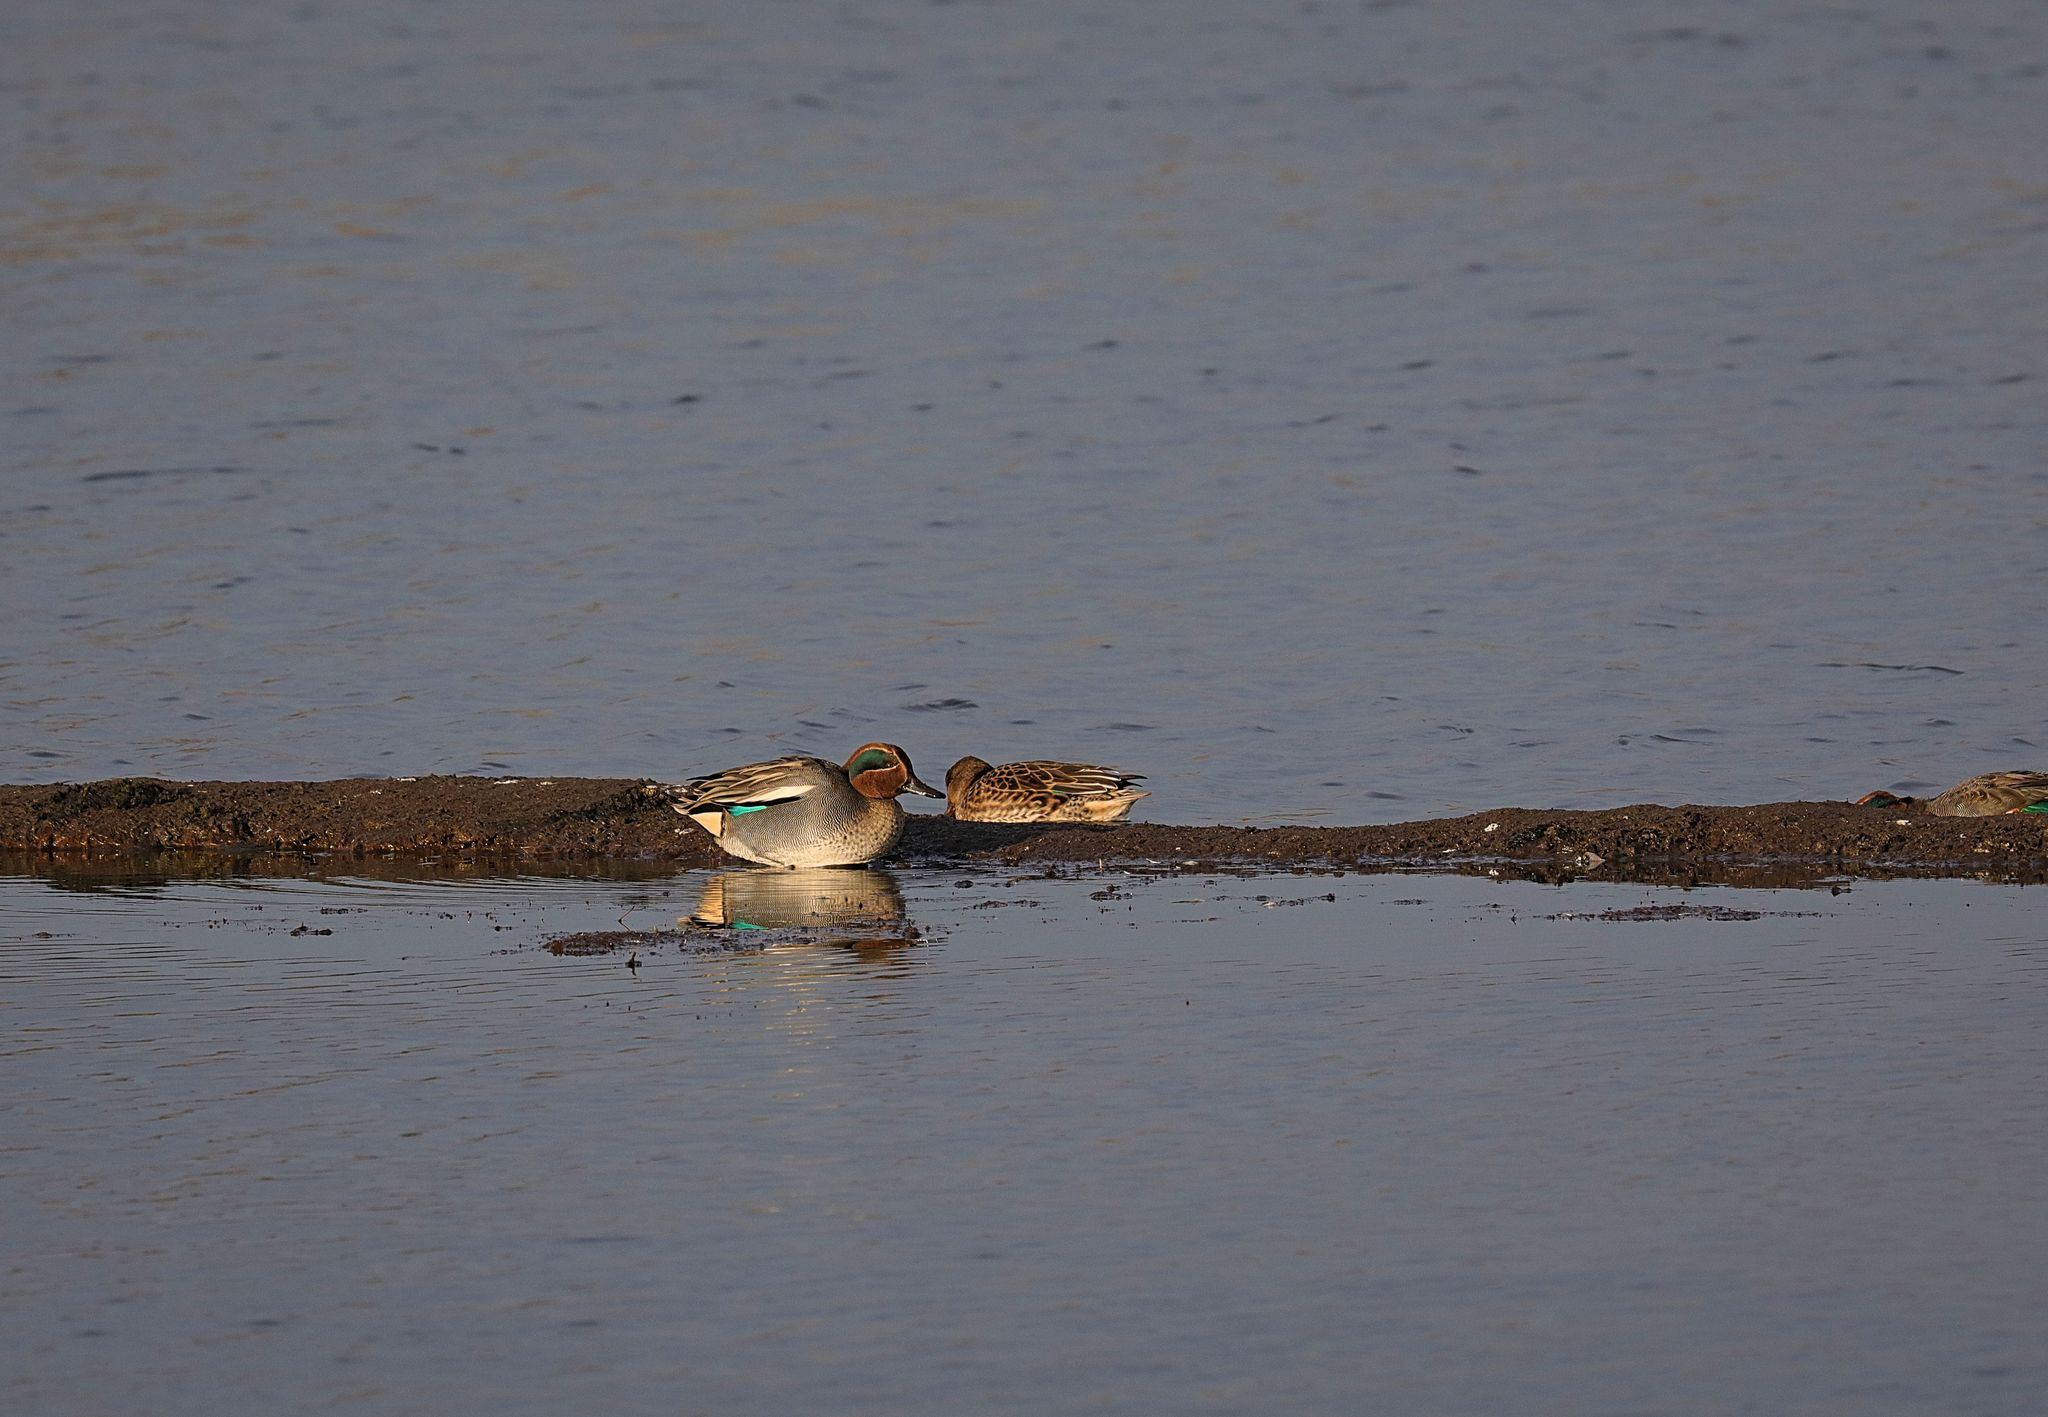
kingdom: Animalia
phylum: Chordata
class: Aves
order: Anseriformes
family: Anatidae
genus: Anas
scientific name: Anas crecca
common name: Eurasian teal
